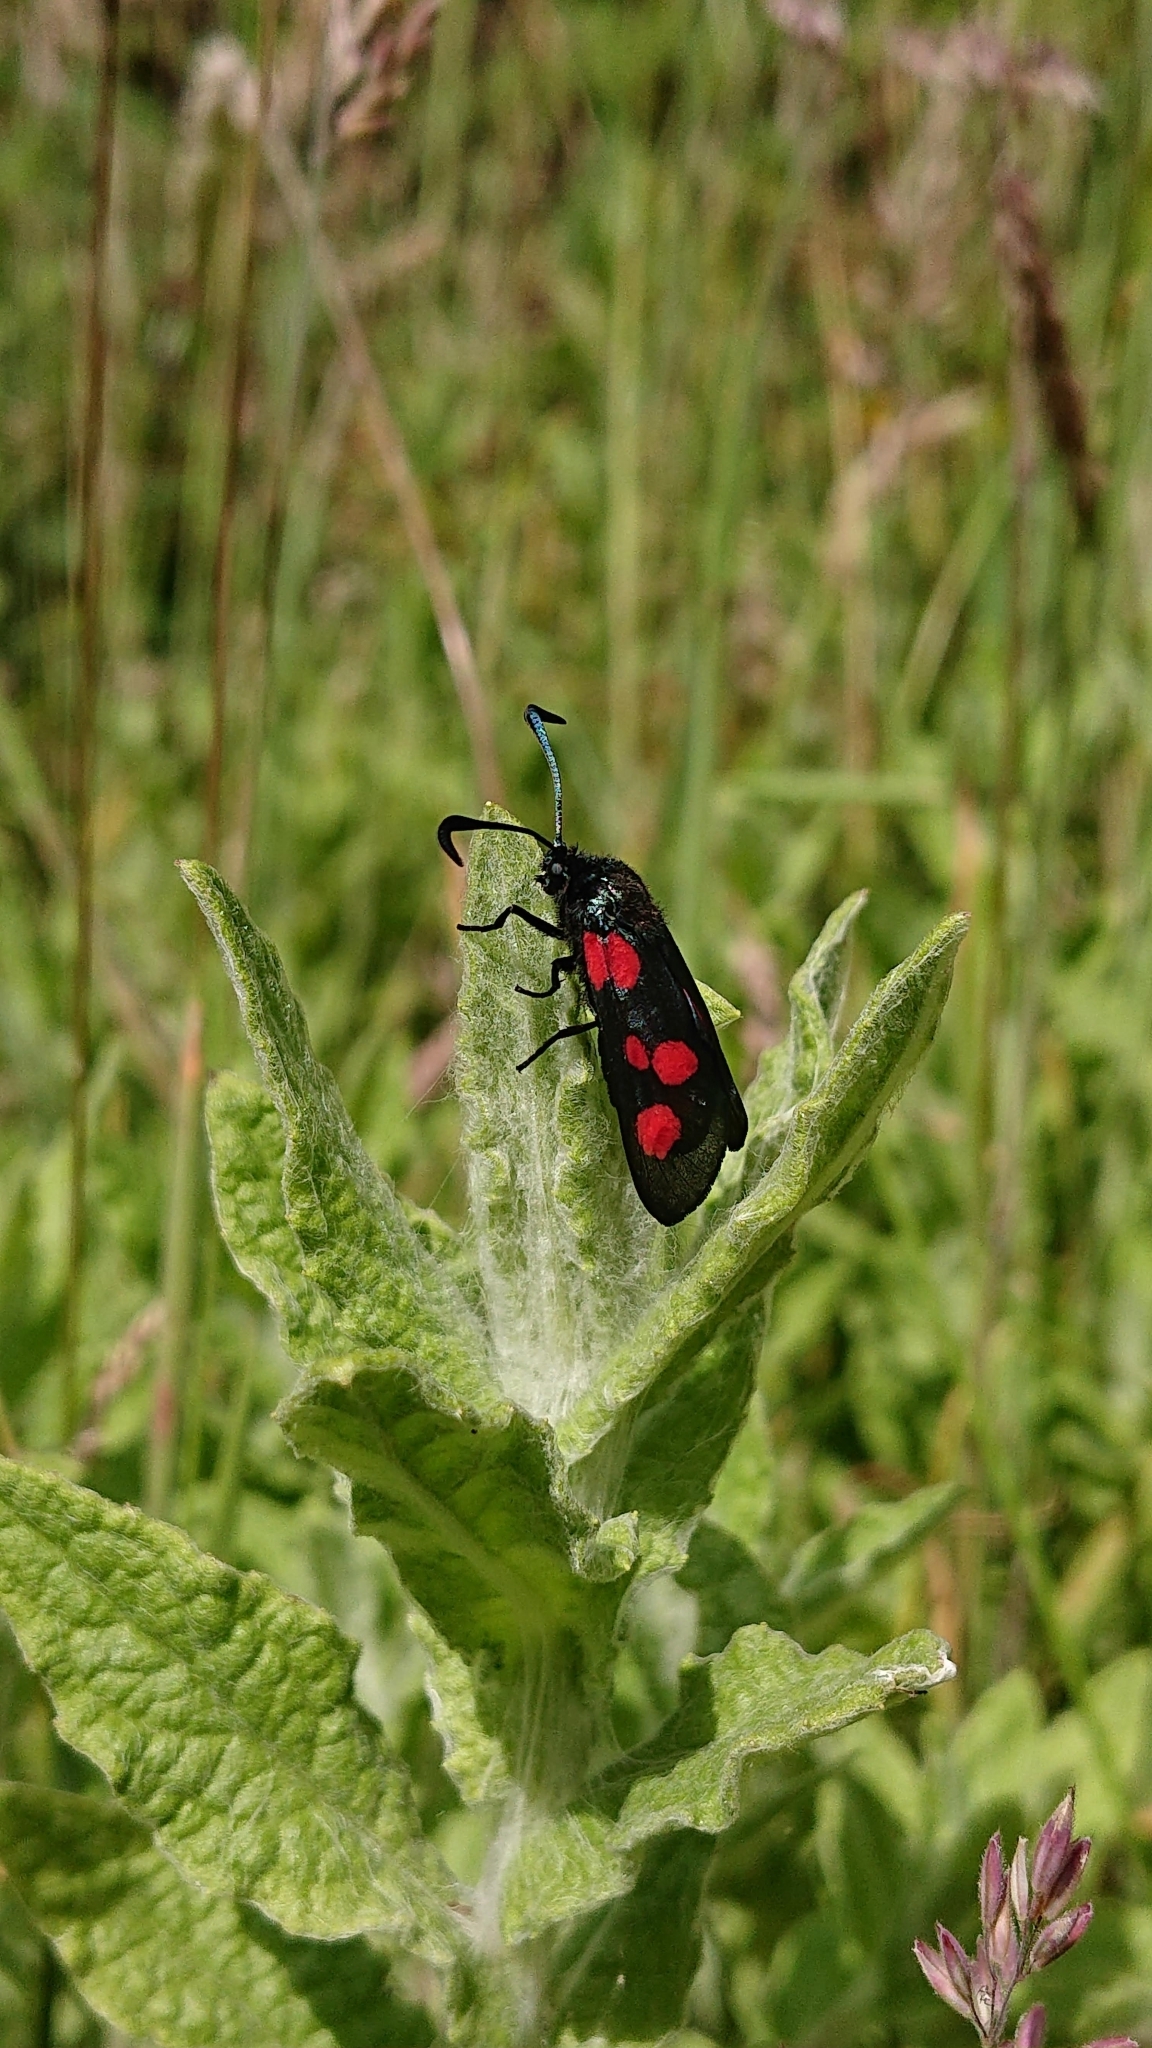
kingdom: Animalia
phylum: Arthropoda
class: Insecta
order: Lepidoptera
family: Zygaenidae
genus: Zygaena
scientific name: Zygaena trifolii
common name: Five-spot burnet
